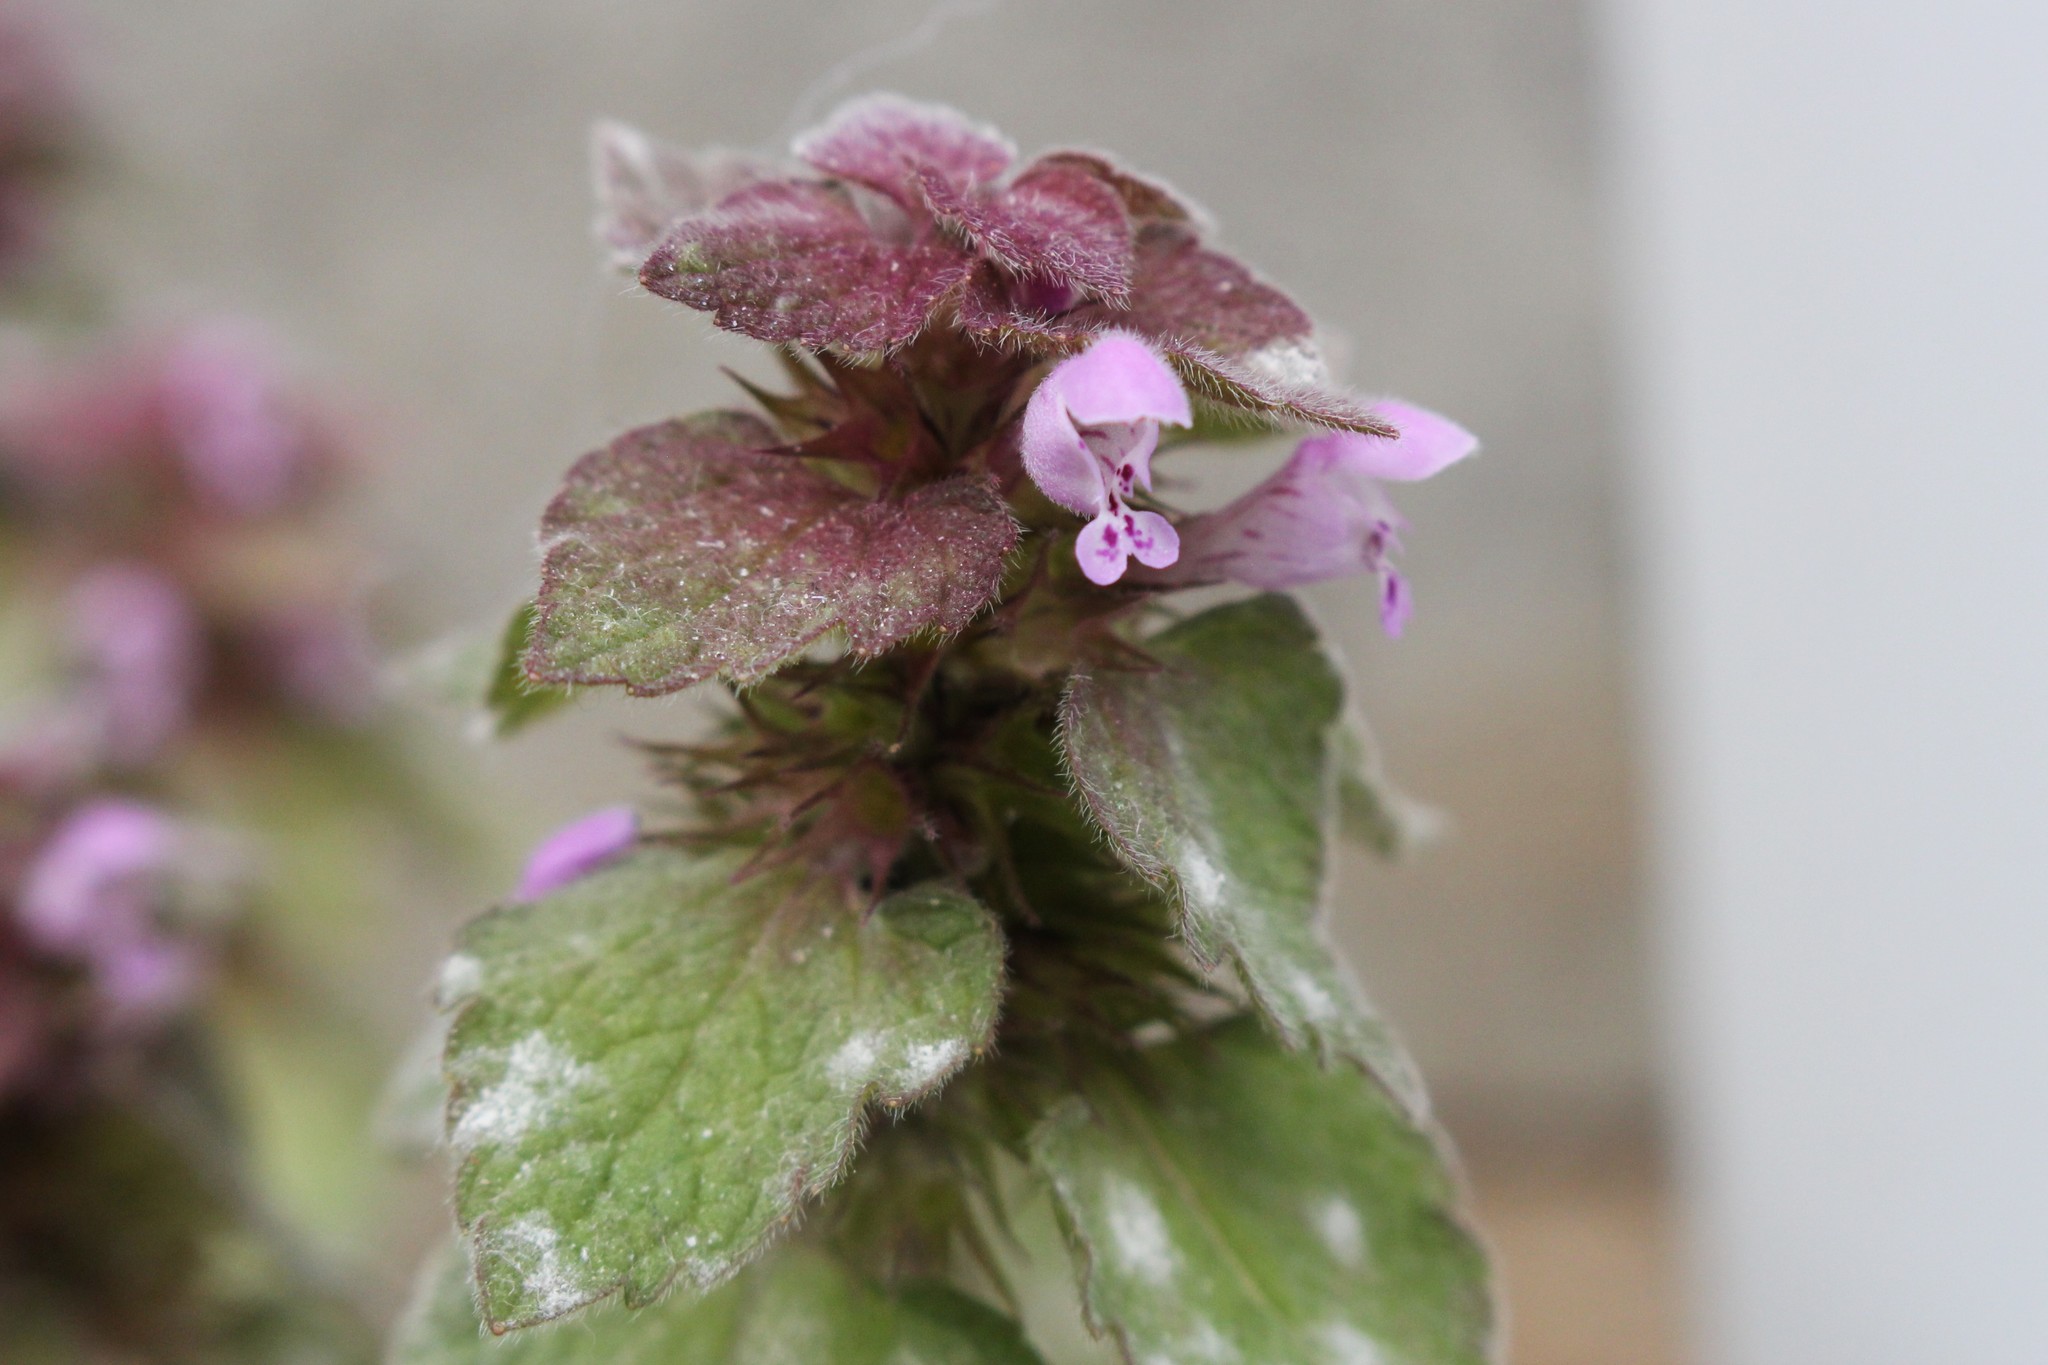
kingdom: Plantae
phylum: Tracheophyta
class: Magnoliopsida
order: Lamiales
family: Lamiaceae
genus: Lamium
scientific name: Lamium purpureum
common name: Red dead-nettle
